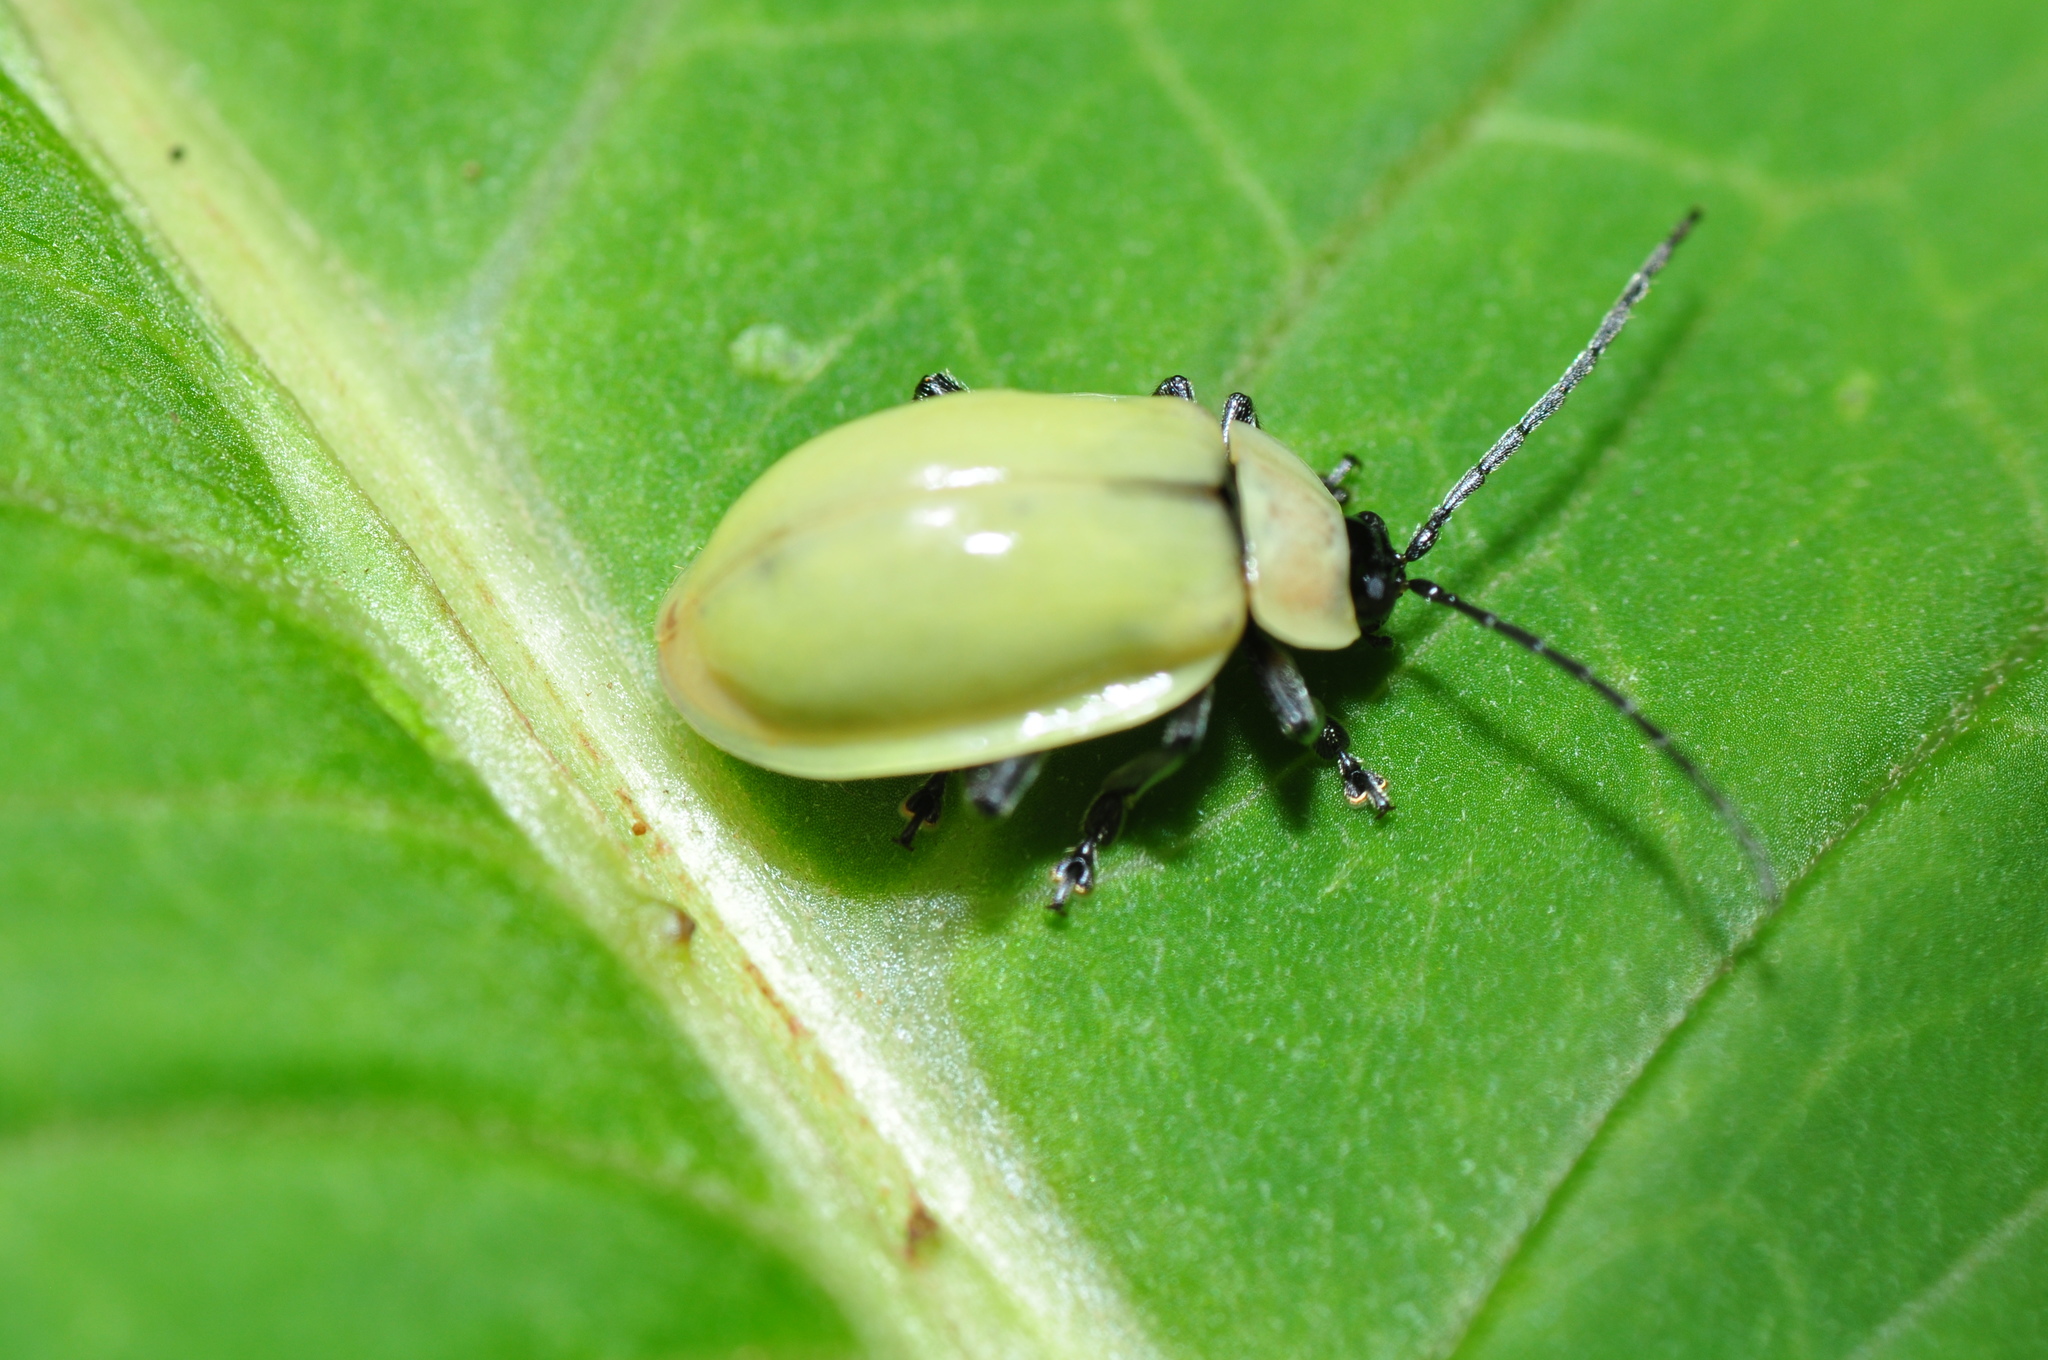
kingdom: Animalia
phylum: Arthropoda
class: Insecta
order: Coleoptera
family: Chrysomelidae
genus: Asphaera
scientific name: Asphaera
